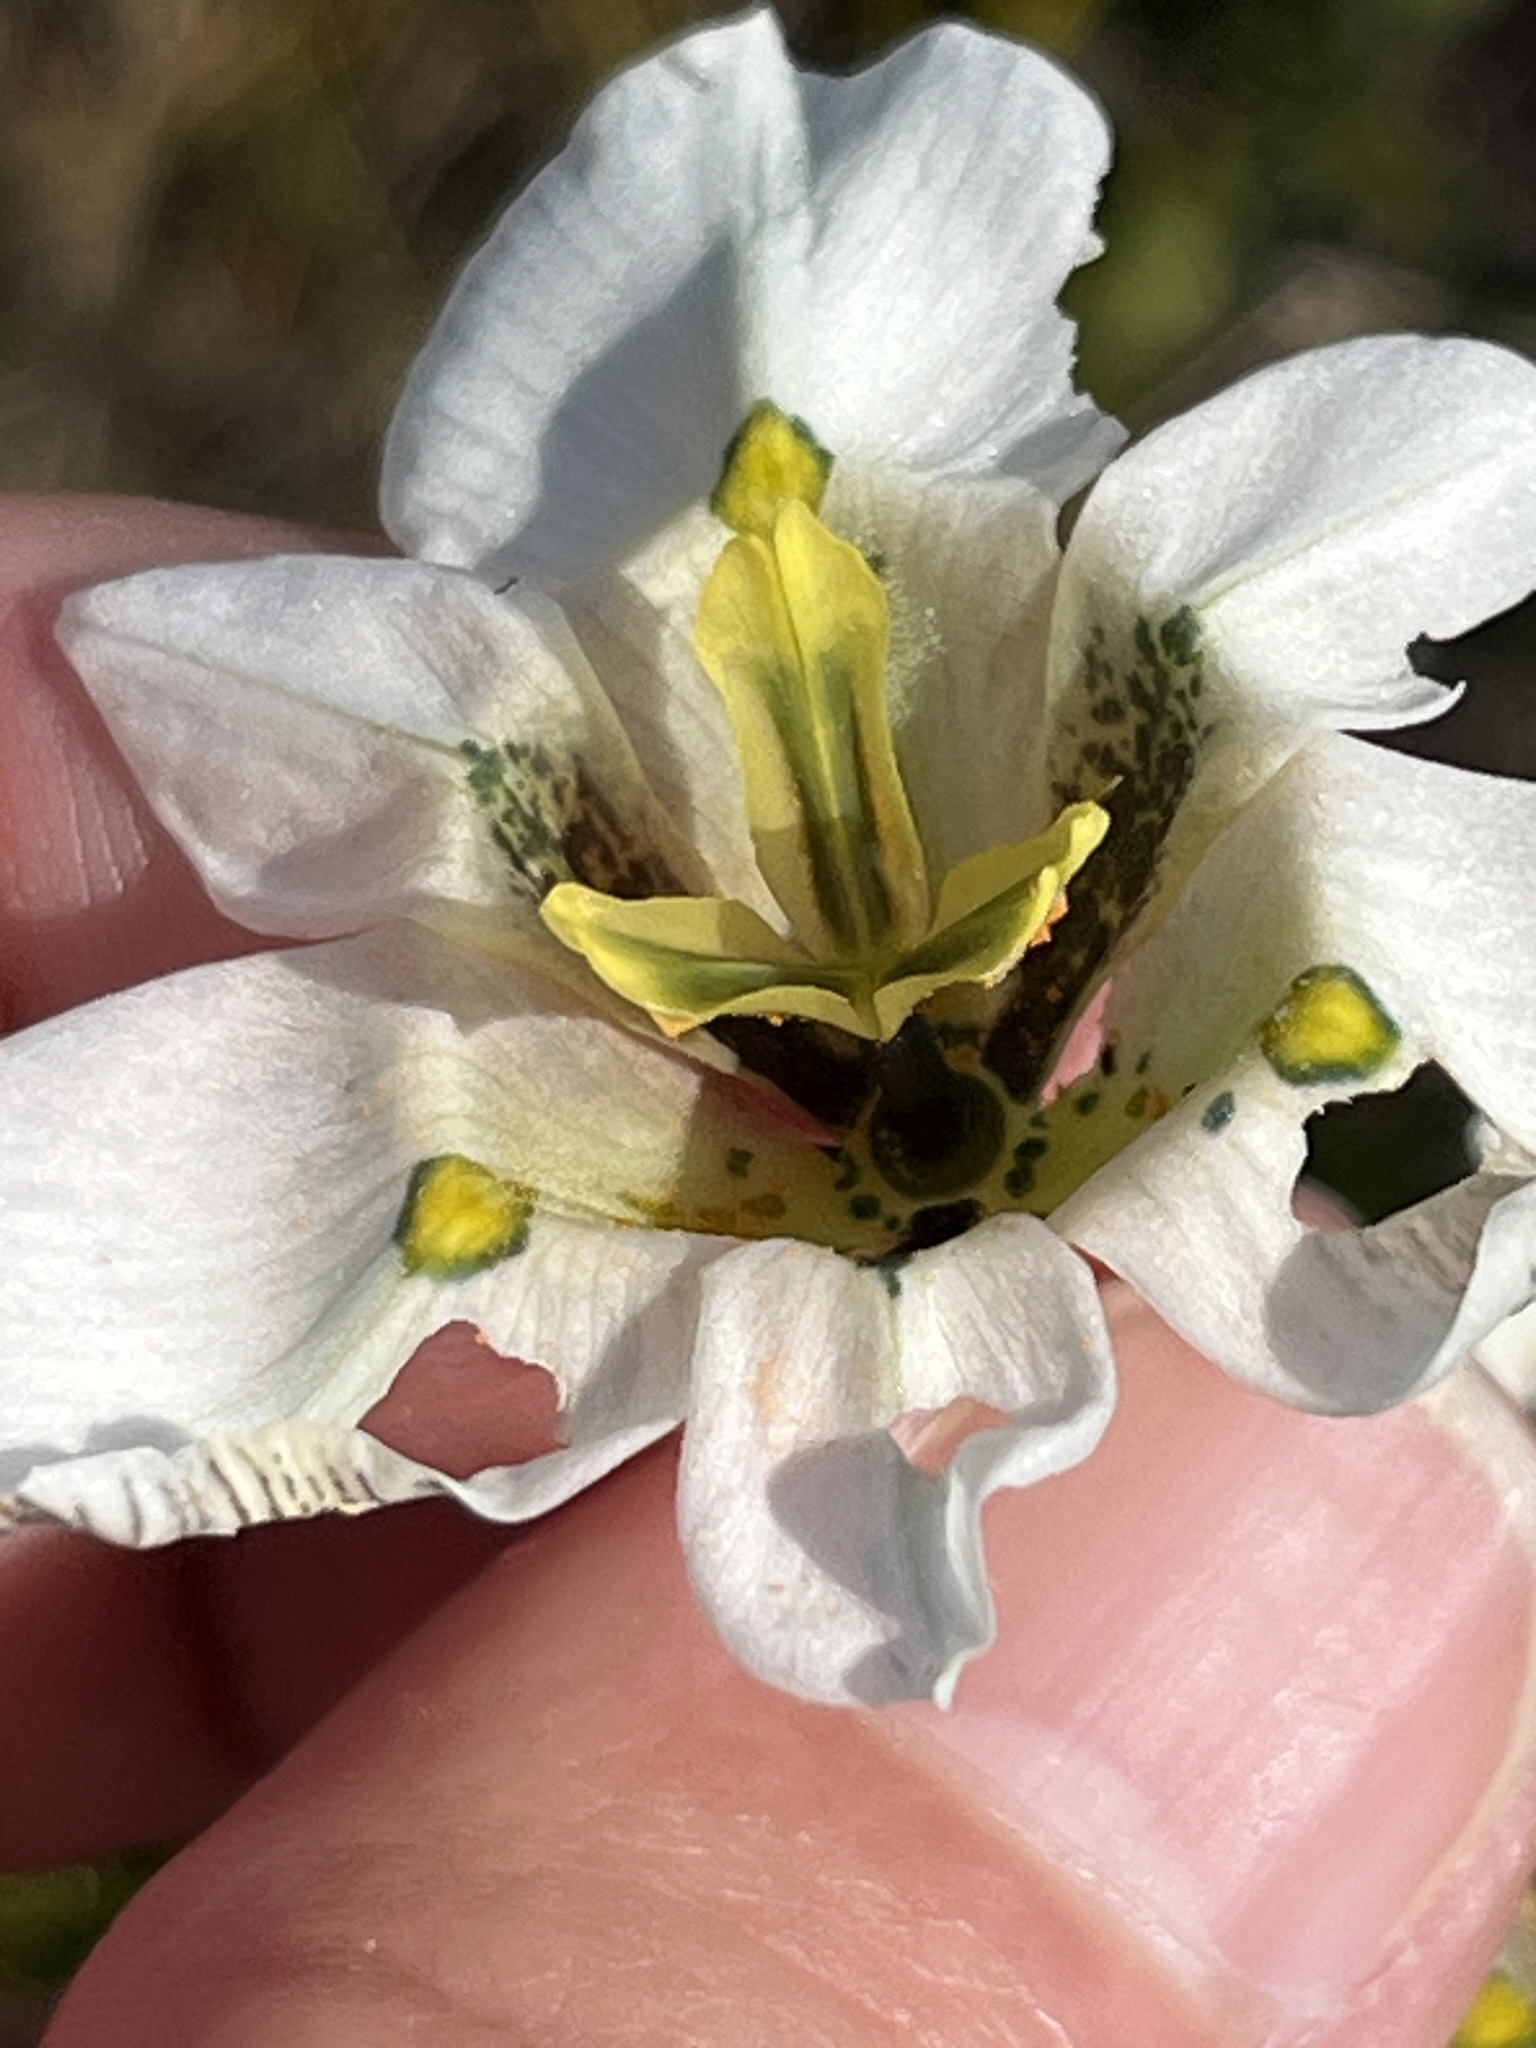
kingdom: Plantae
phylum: Tracheophyta
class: Liliopsida
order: Asparagales
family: Iridaceae
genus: Moraea
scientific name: Moraea cantharophila
